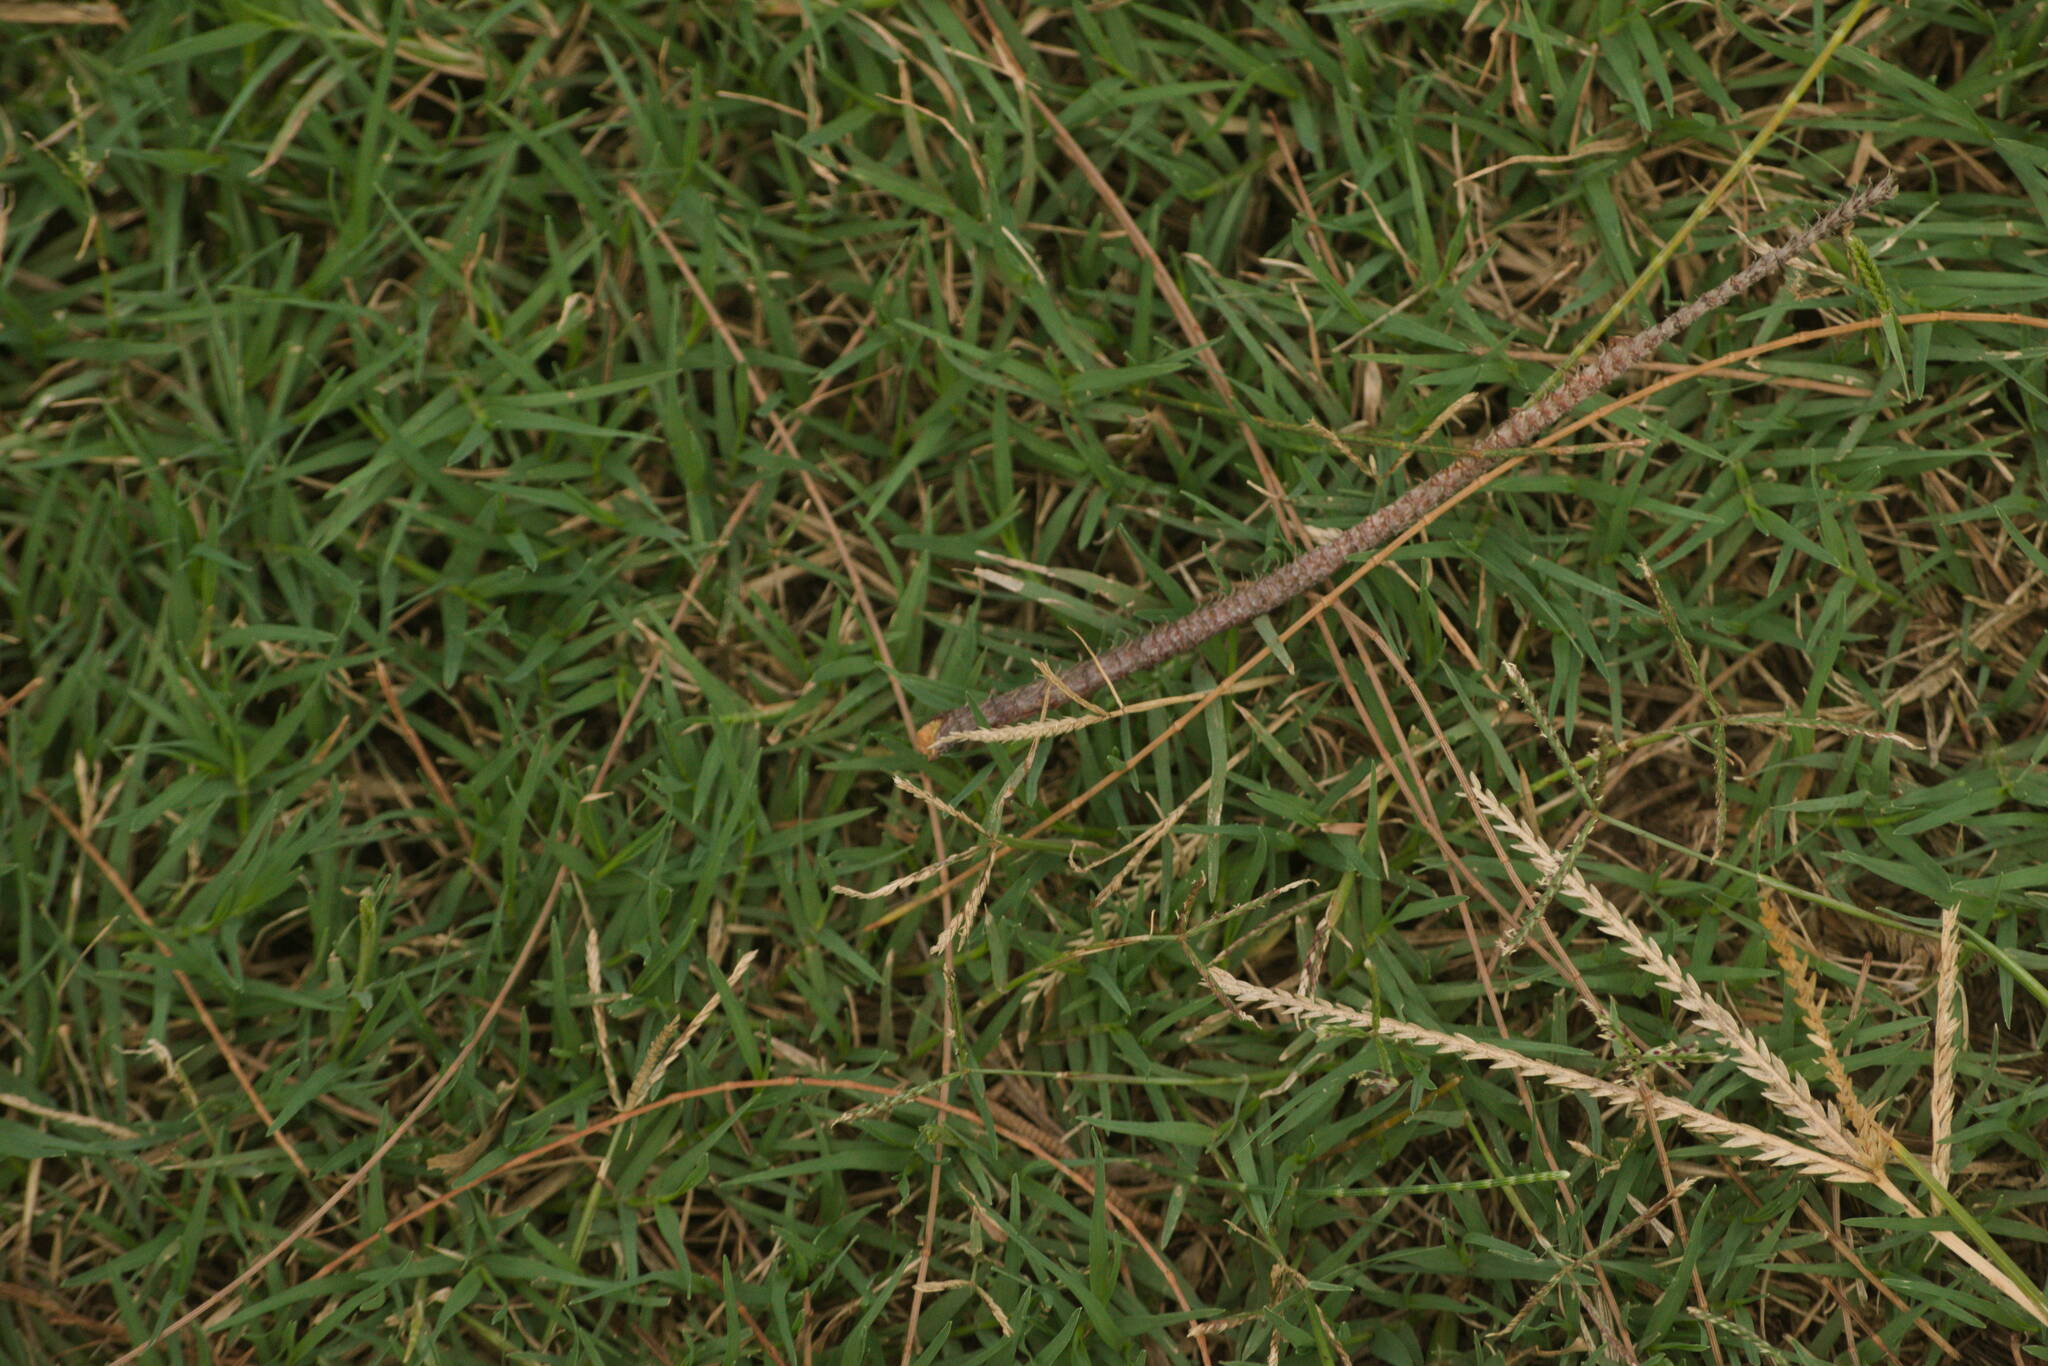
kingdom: Plantae
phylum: Tracheophyta
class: Liliopsida
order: Poales
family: Poaceae
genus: Cynodon
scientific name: Cynodon dactylon
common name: Bermuda grass
